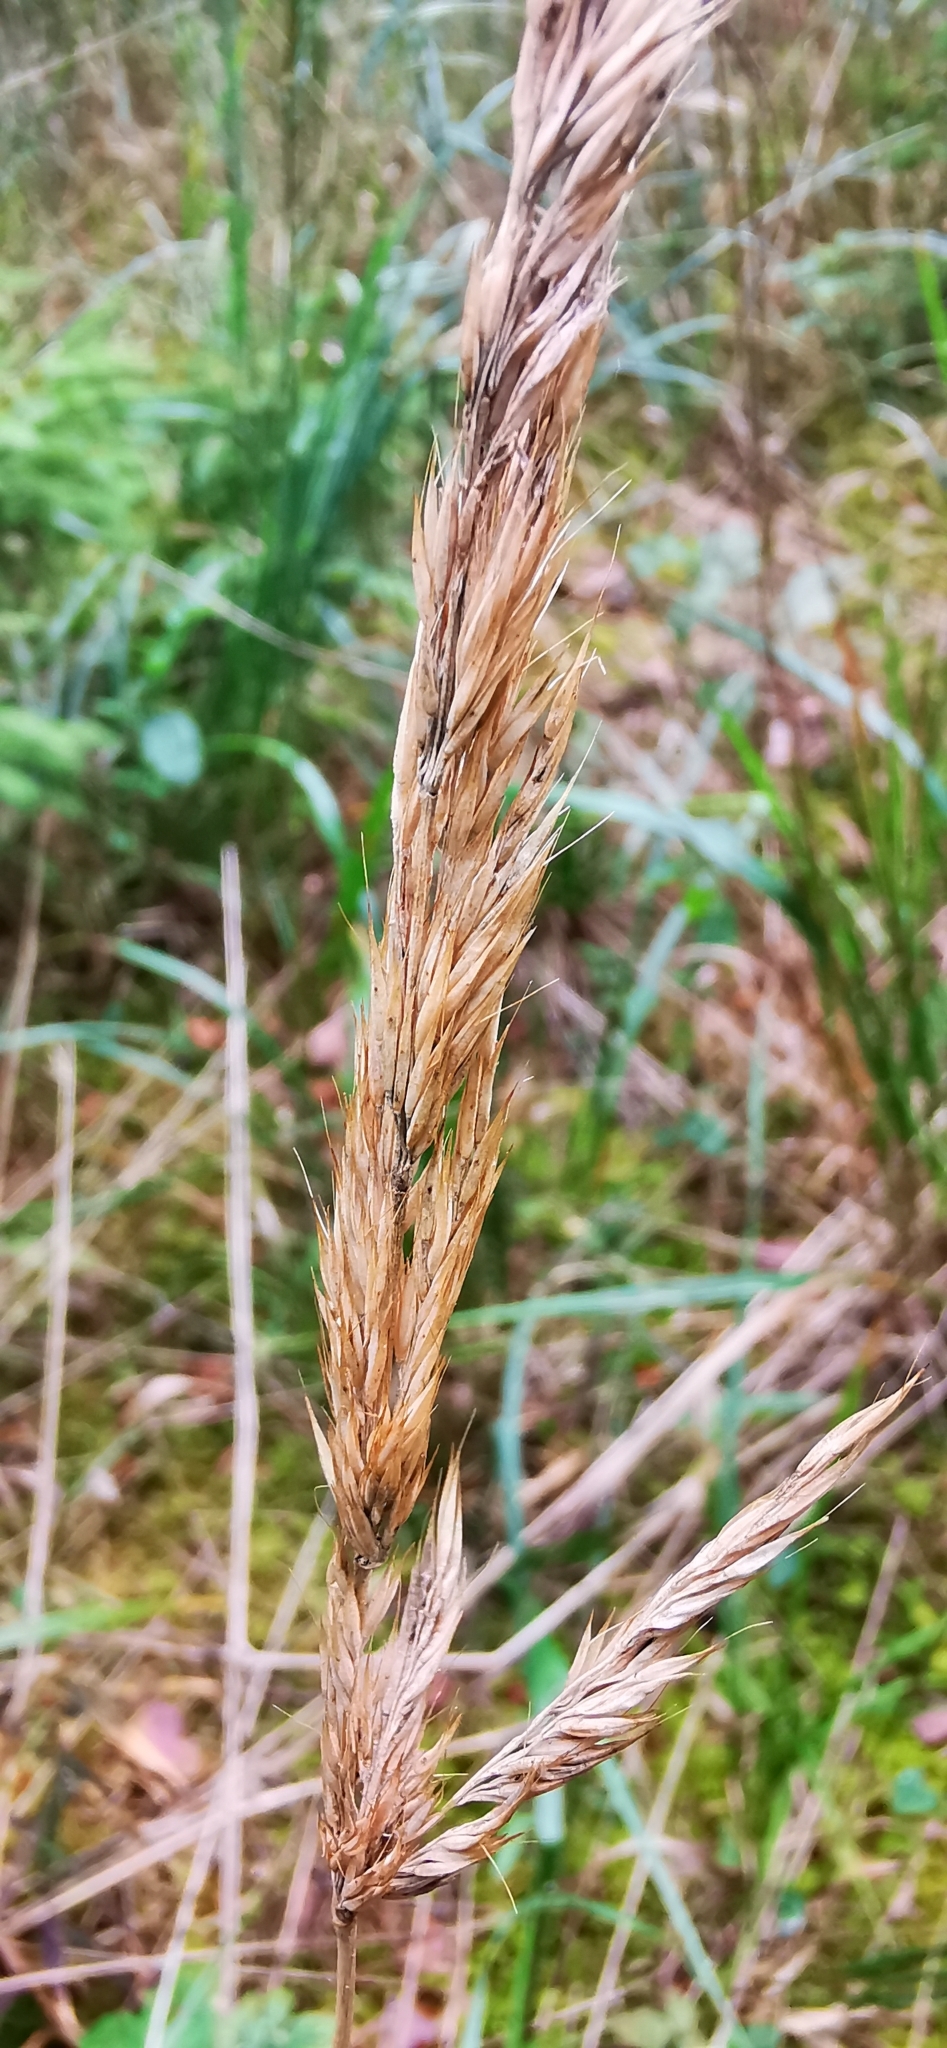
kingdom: Plantae
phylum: Tracheophyta
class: Liliopsida
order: Poales
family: Poaceae
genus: Calamagrostis
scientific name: Calamagrostis arundinacea
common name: Metskastik
